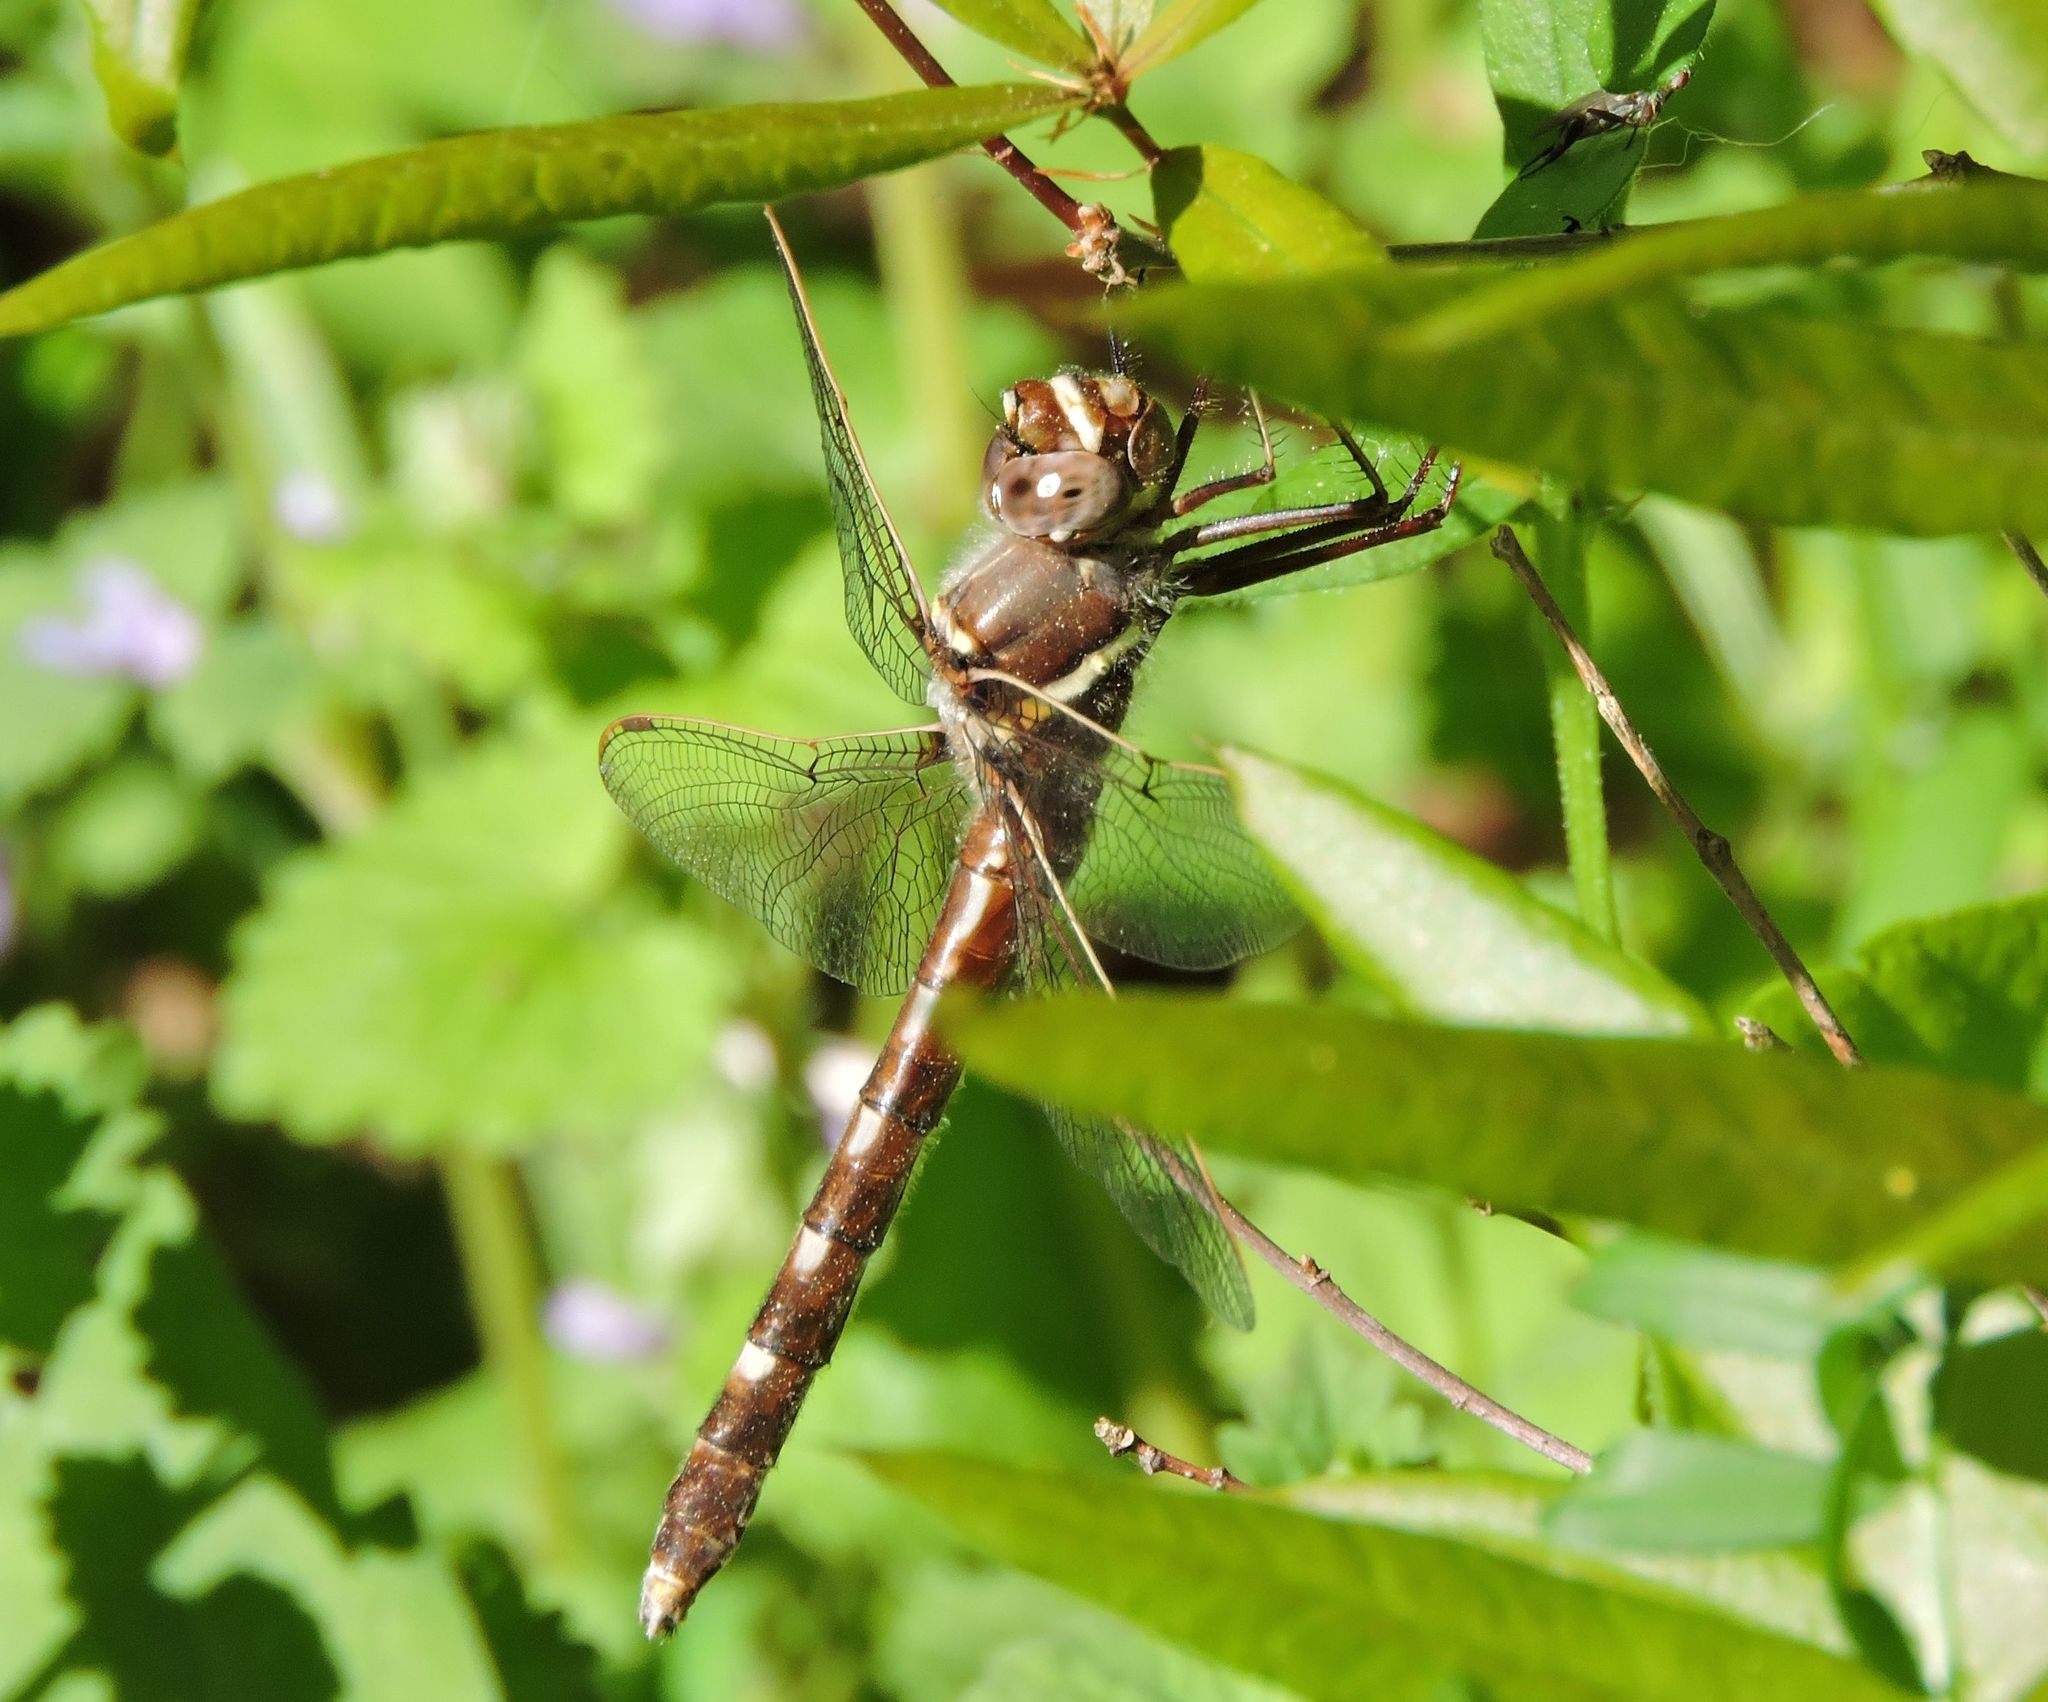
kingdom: Animalia
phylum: Arthropoda
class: Insecta
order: Odonata
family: Macromiidae
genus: Didymops
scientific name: Didymops transversa
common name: Stream cruiser
